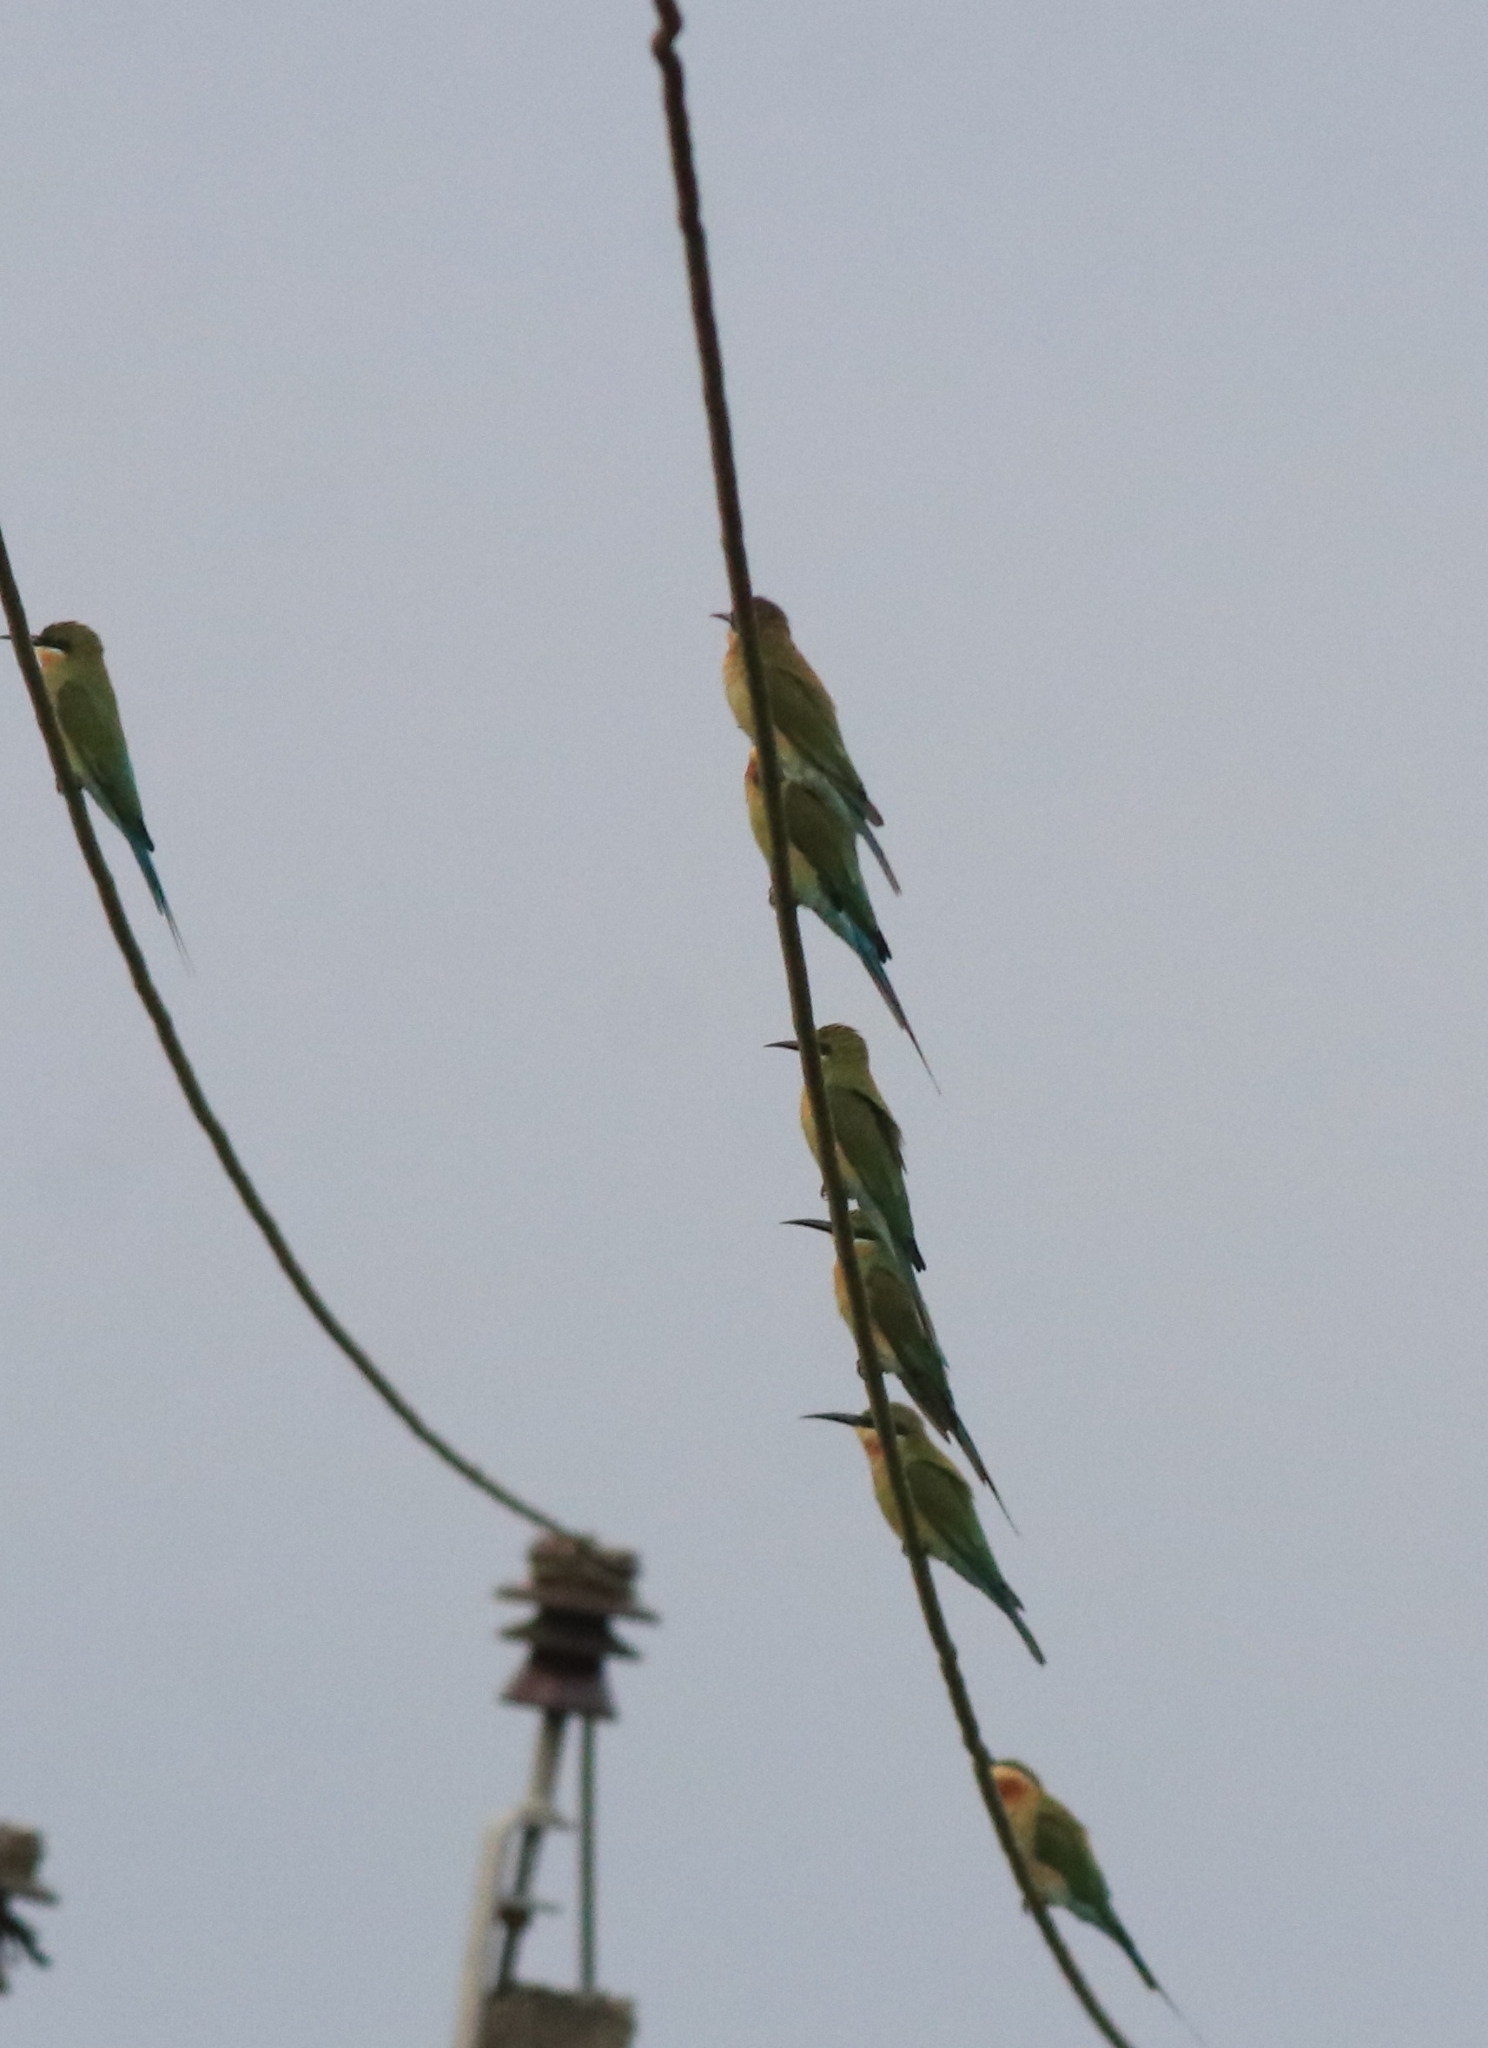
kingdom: Animalia
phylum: Chordata
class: Aves
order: Coraciiformes
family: Meropidae
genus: Merops
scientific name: Merops philippinus
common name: Blue-tailed bee-eater
